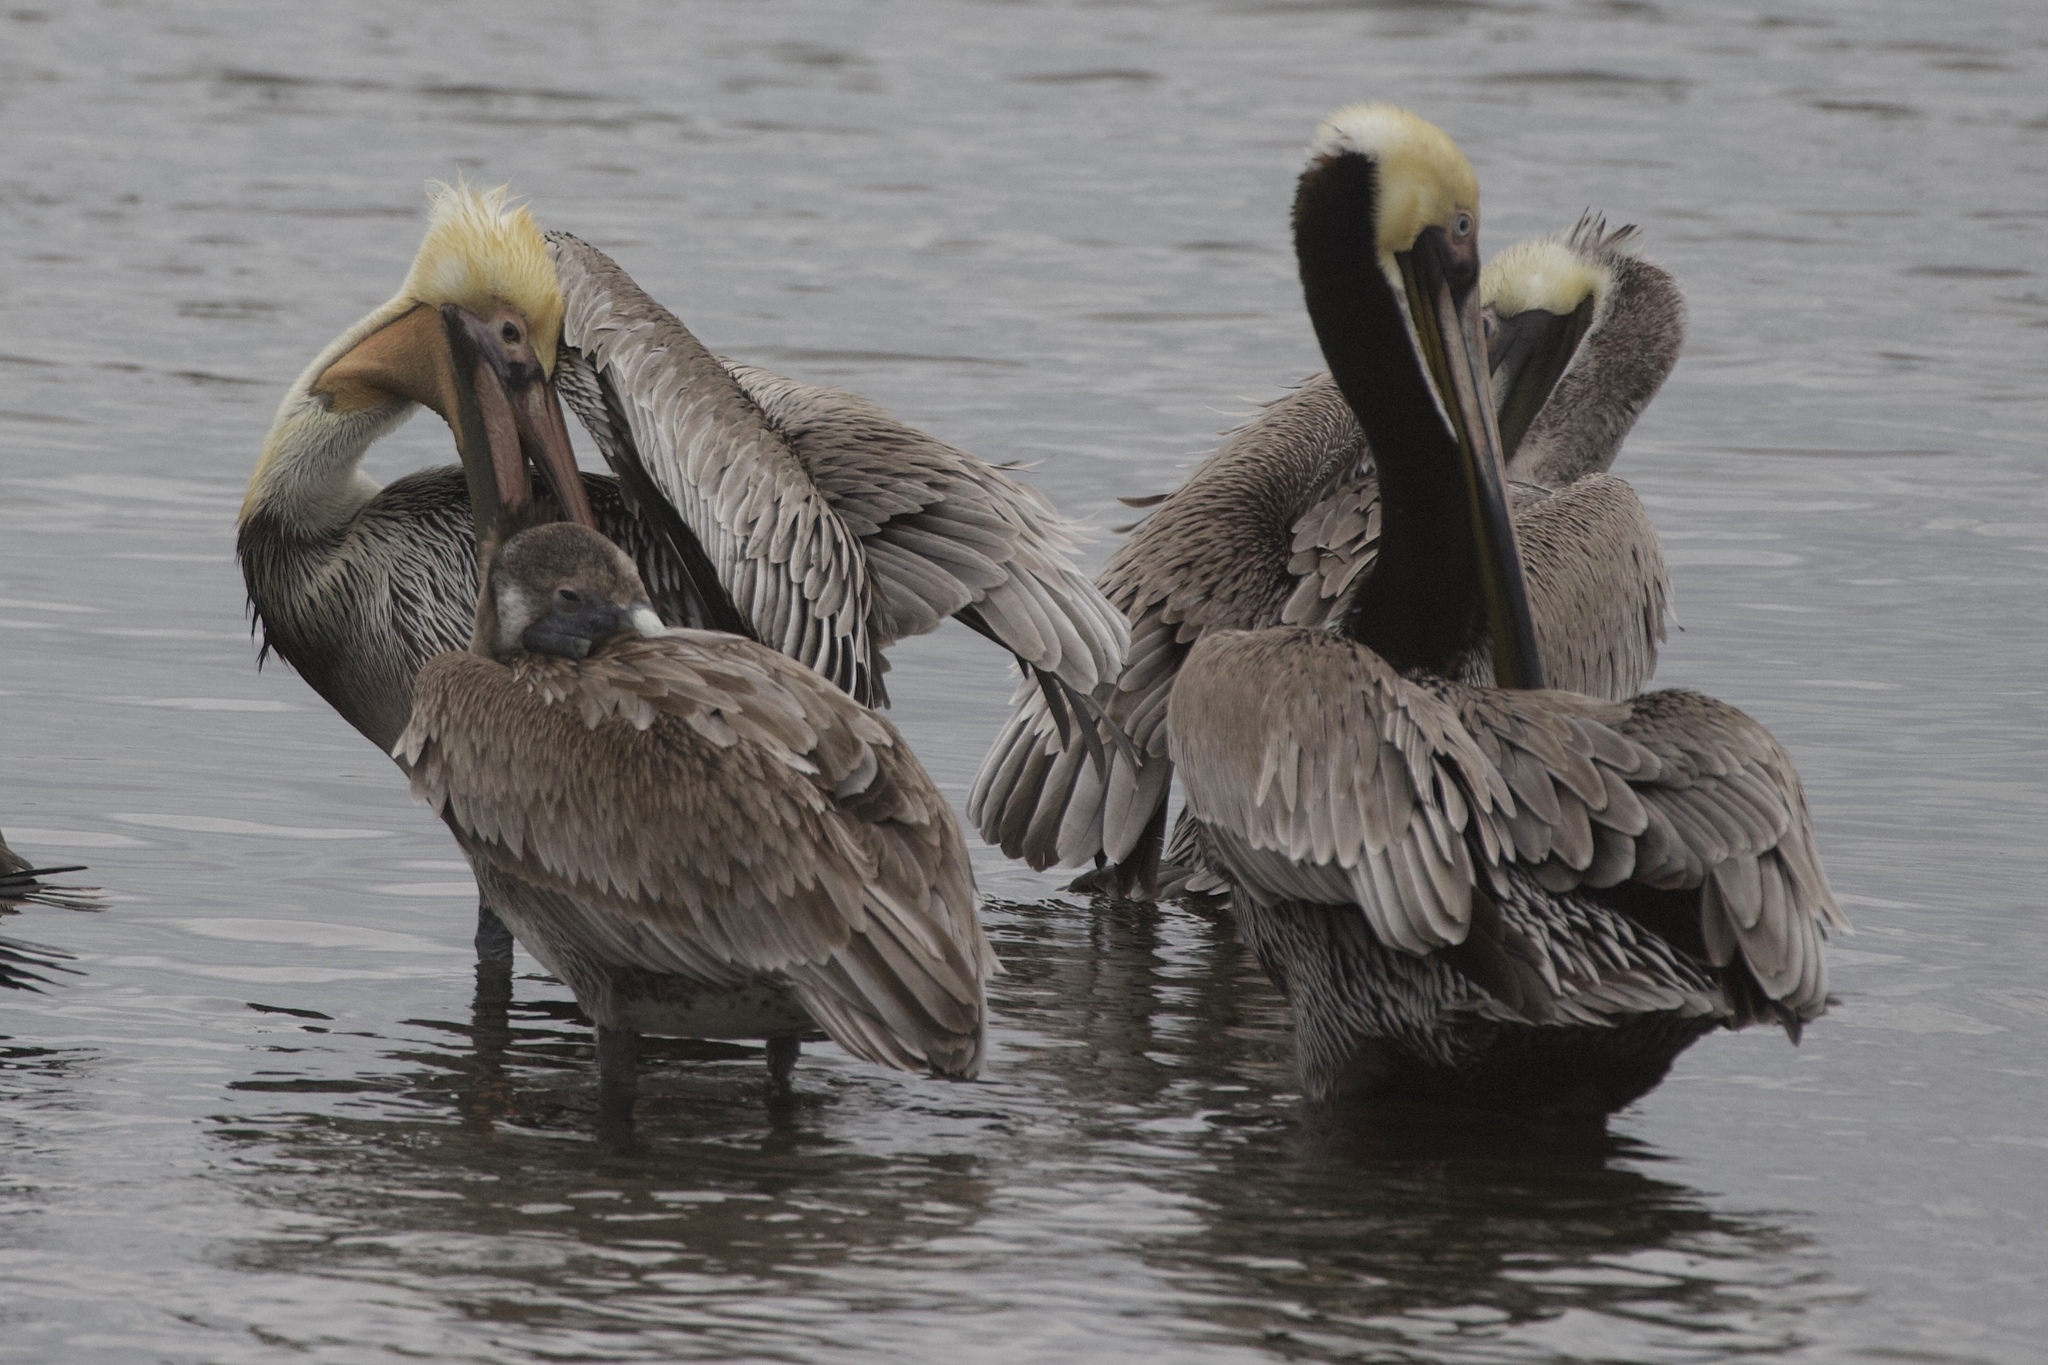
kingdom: Animalia
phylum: Chordata
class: Aves
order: Pelecaniformes
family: Pelecanidae
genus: Pelecanus
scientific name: Pelecanus occidentalis
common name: Brown pelican
